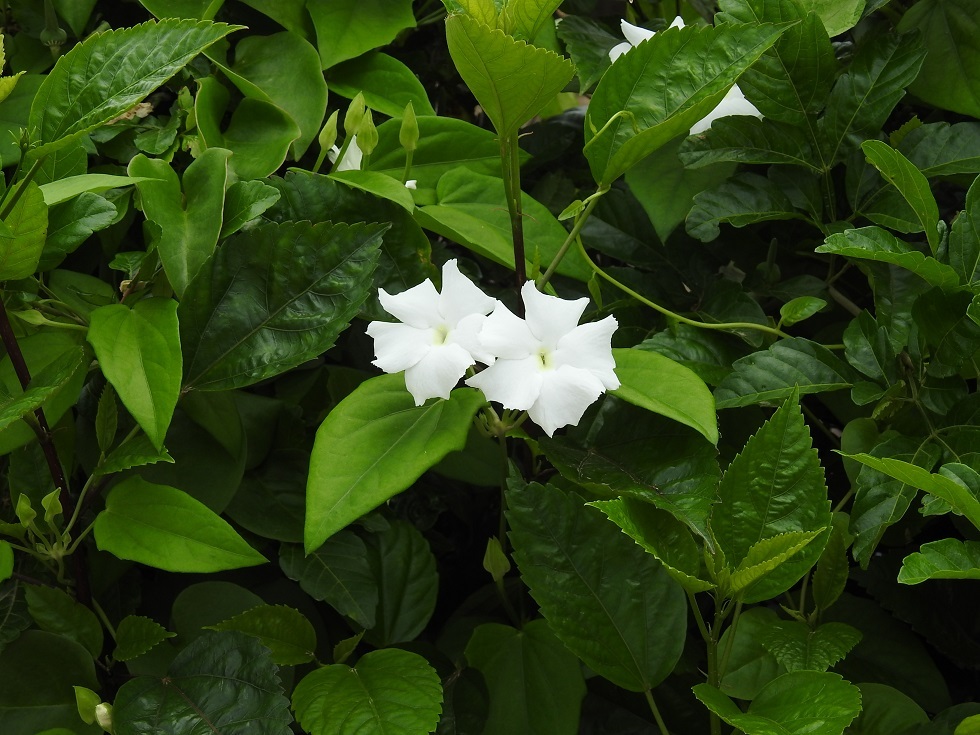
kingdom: Plantae
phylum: Tracheophyta
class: Magnoliopsida
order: Lamiales
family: Acanthaceae
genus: Thunbergia
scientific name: Thunbergia fragrans
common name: Whitelady
